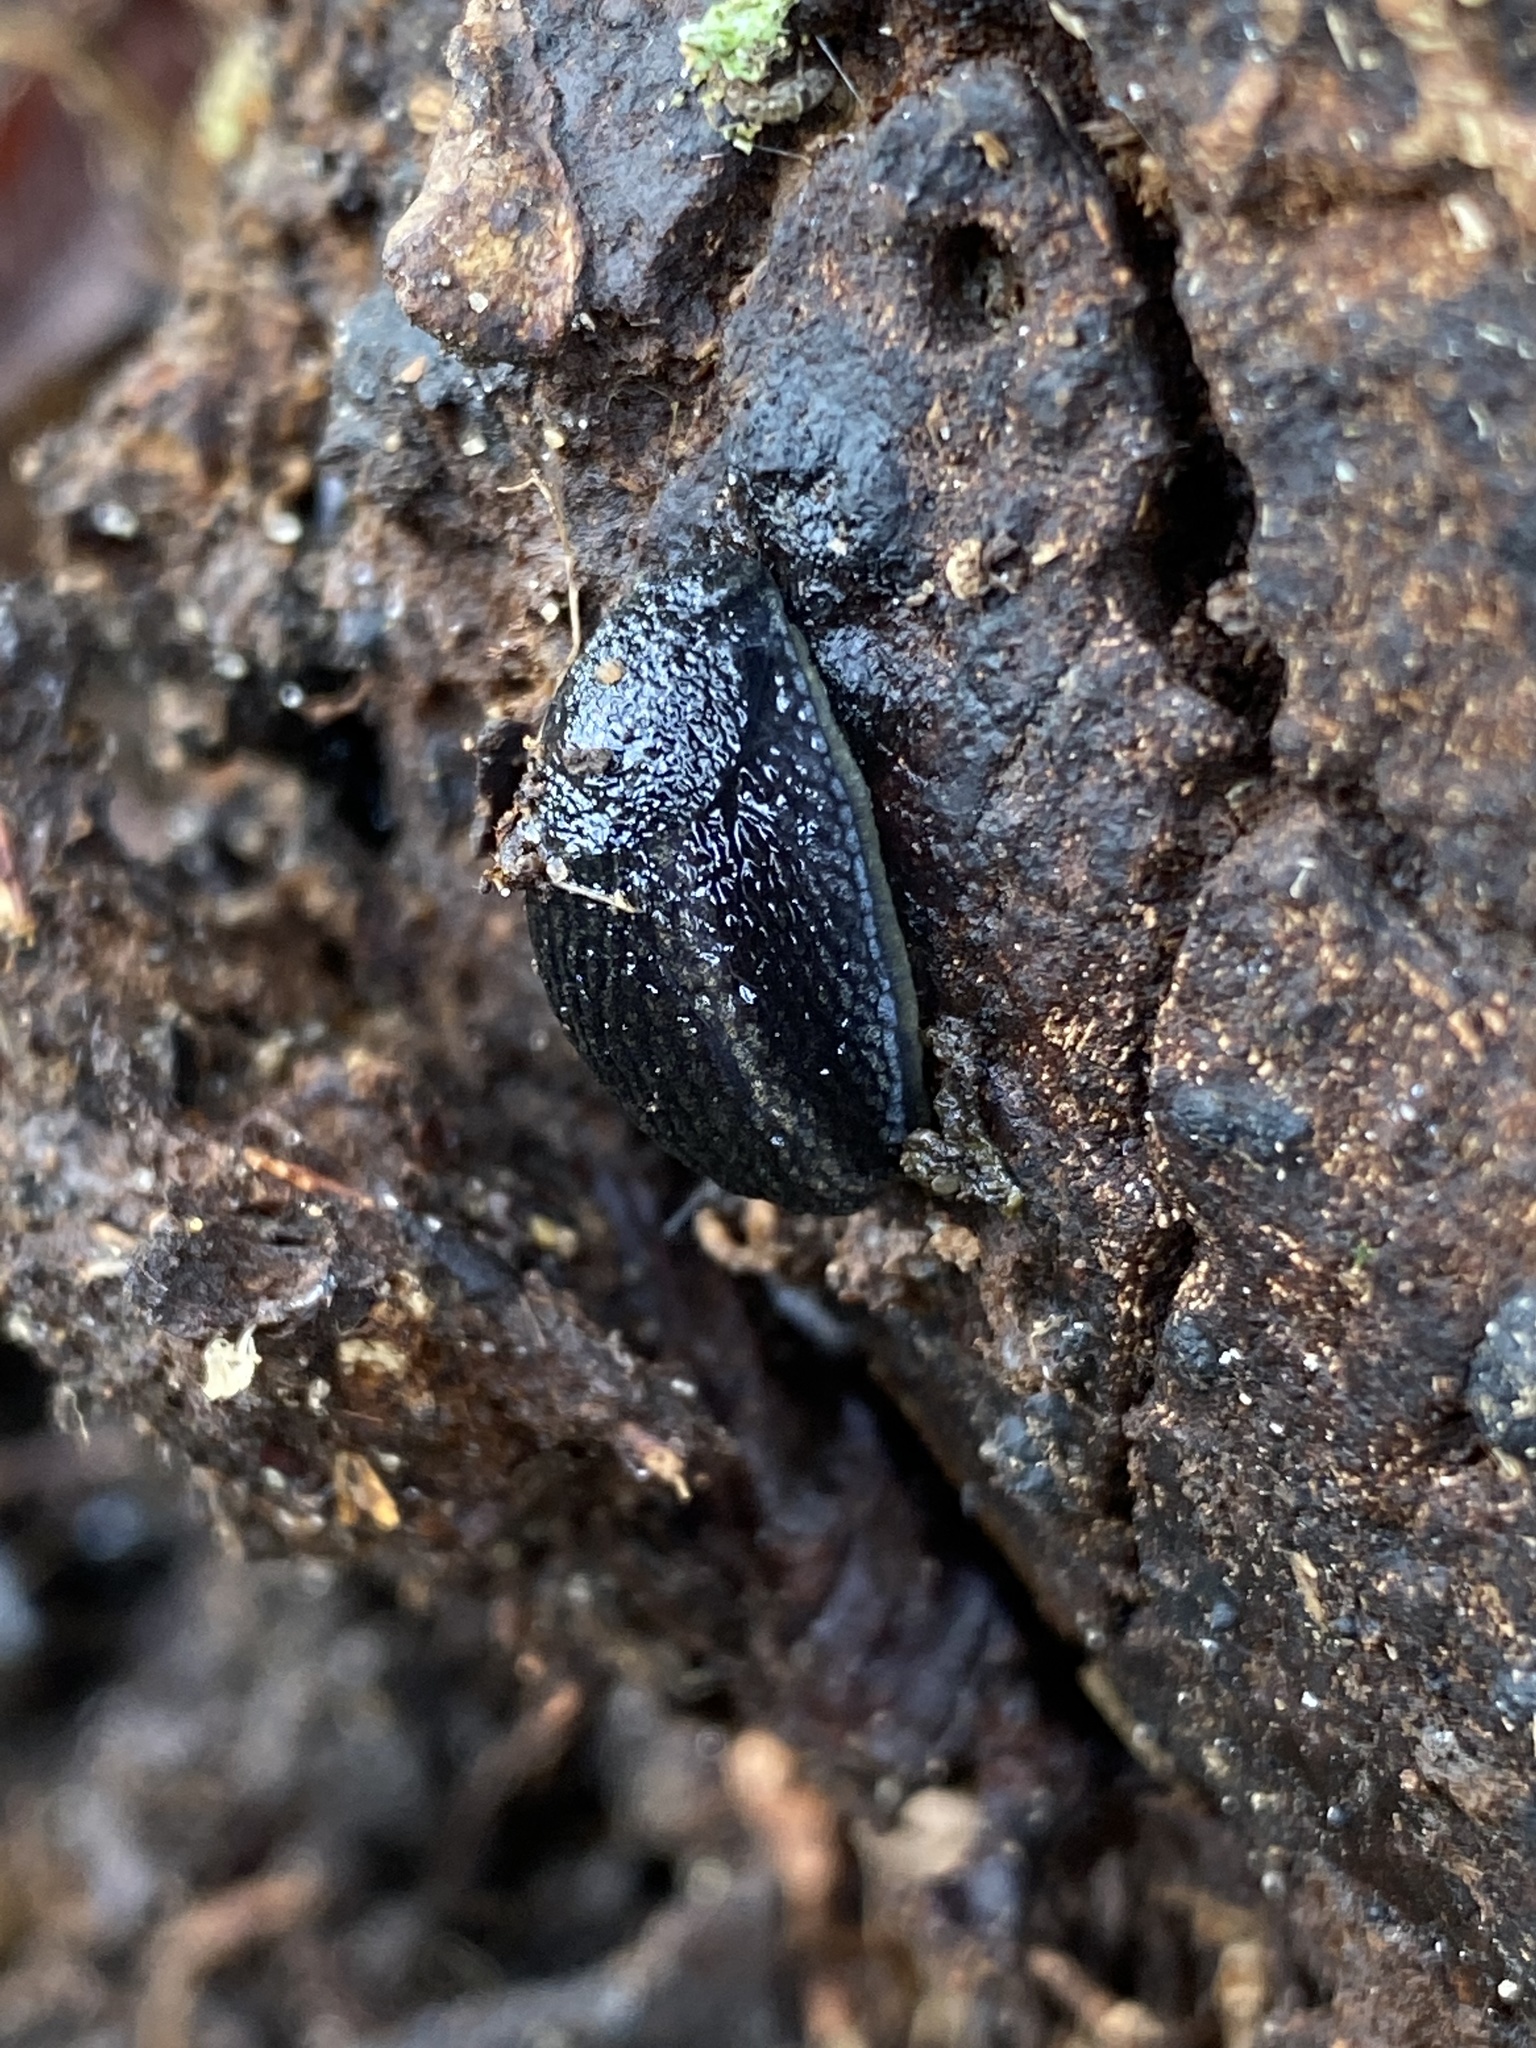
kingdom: Animalia
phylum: Mollusca
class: Gastropoda
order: Stylommatophora
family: Arionidae
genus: Arion
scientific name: Arion hortensis
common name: Garden arion
